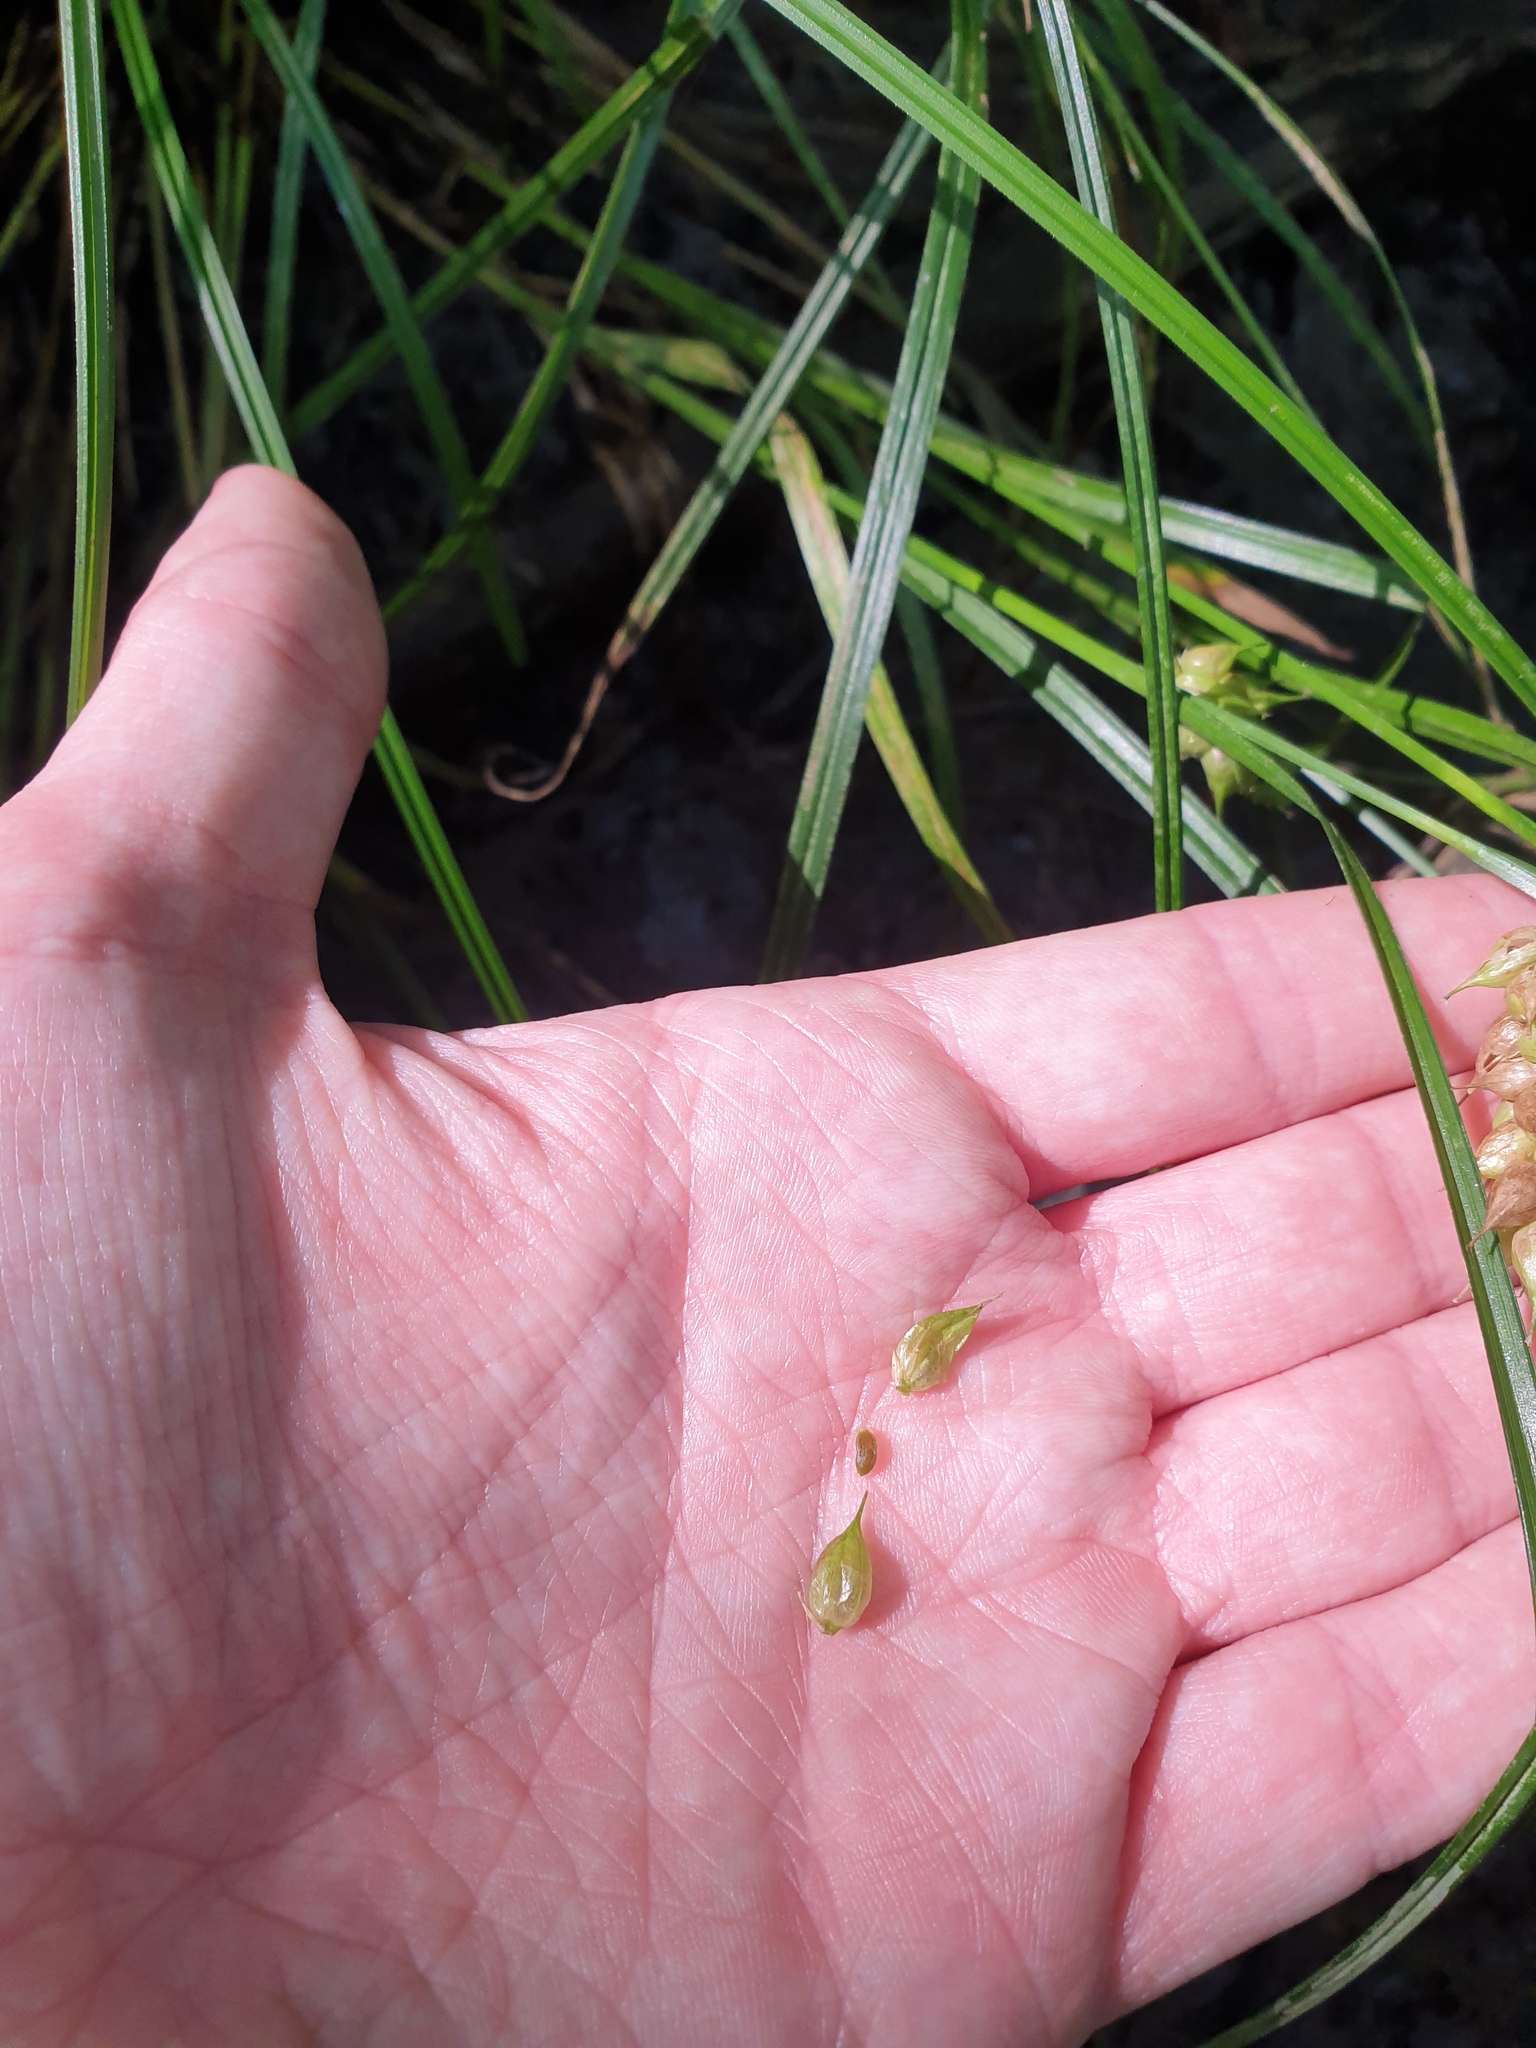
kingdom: Plantae
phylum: Tracheophyta
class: Liliopsida
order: Poales
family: Cyperaceae
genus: Carex
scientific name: Carex tuckermanii
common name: Tuckerman's sedge
